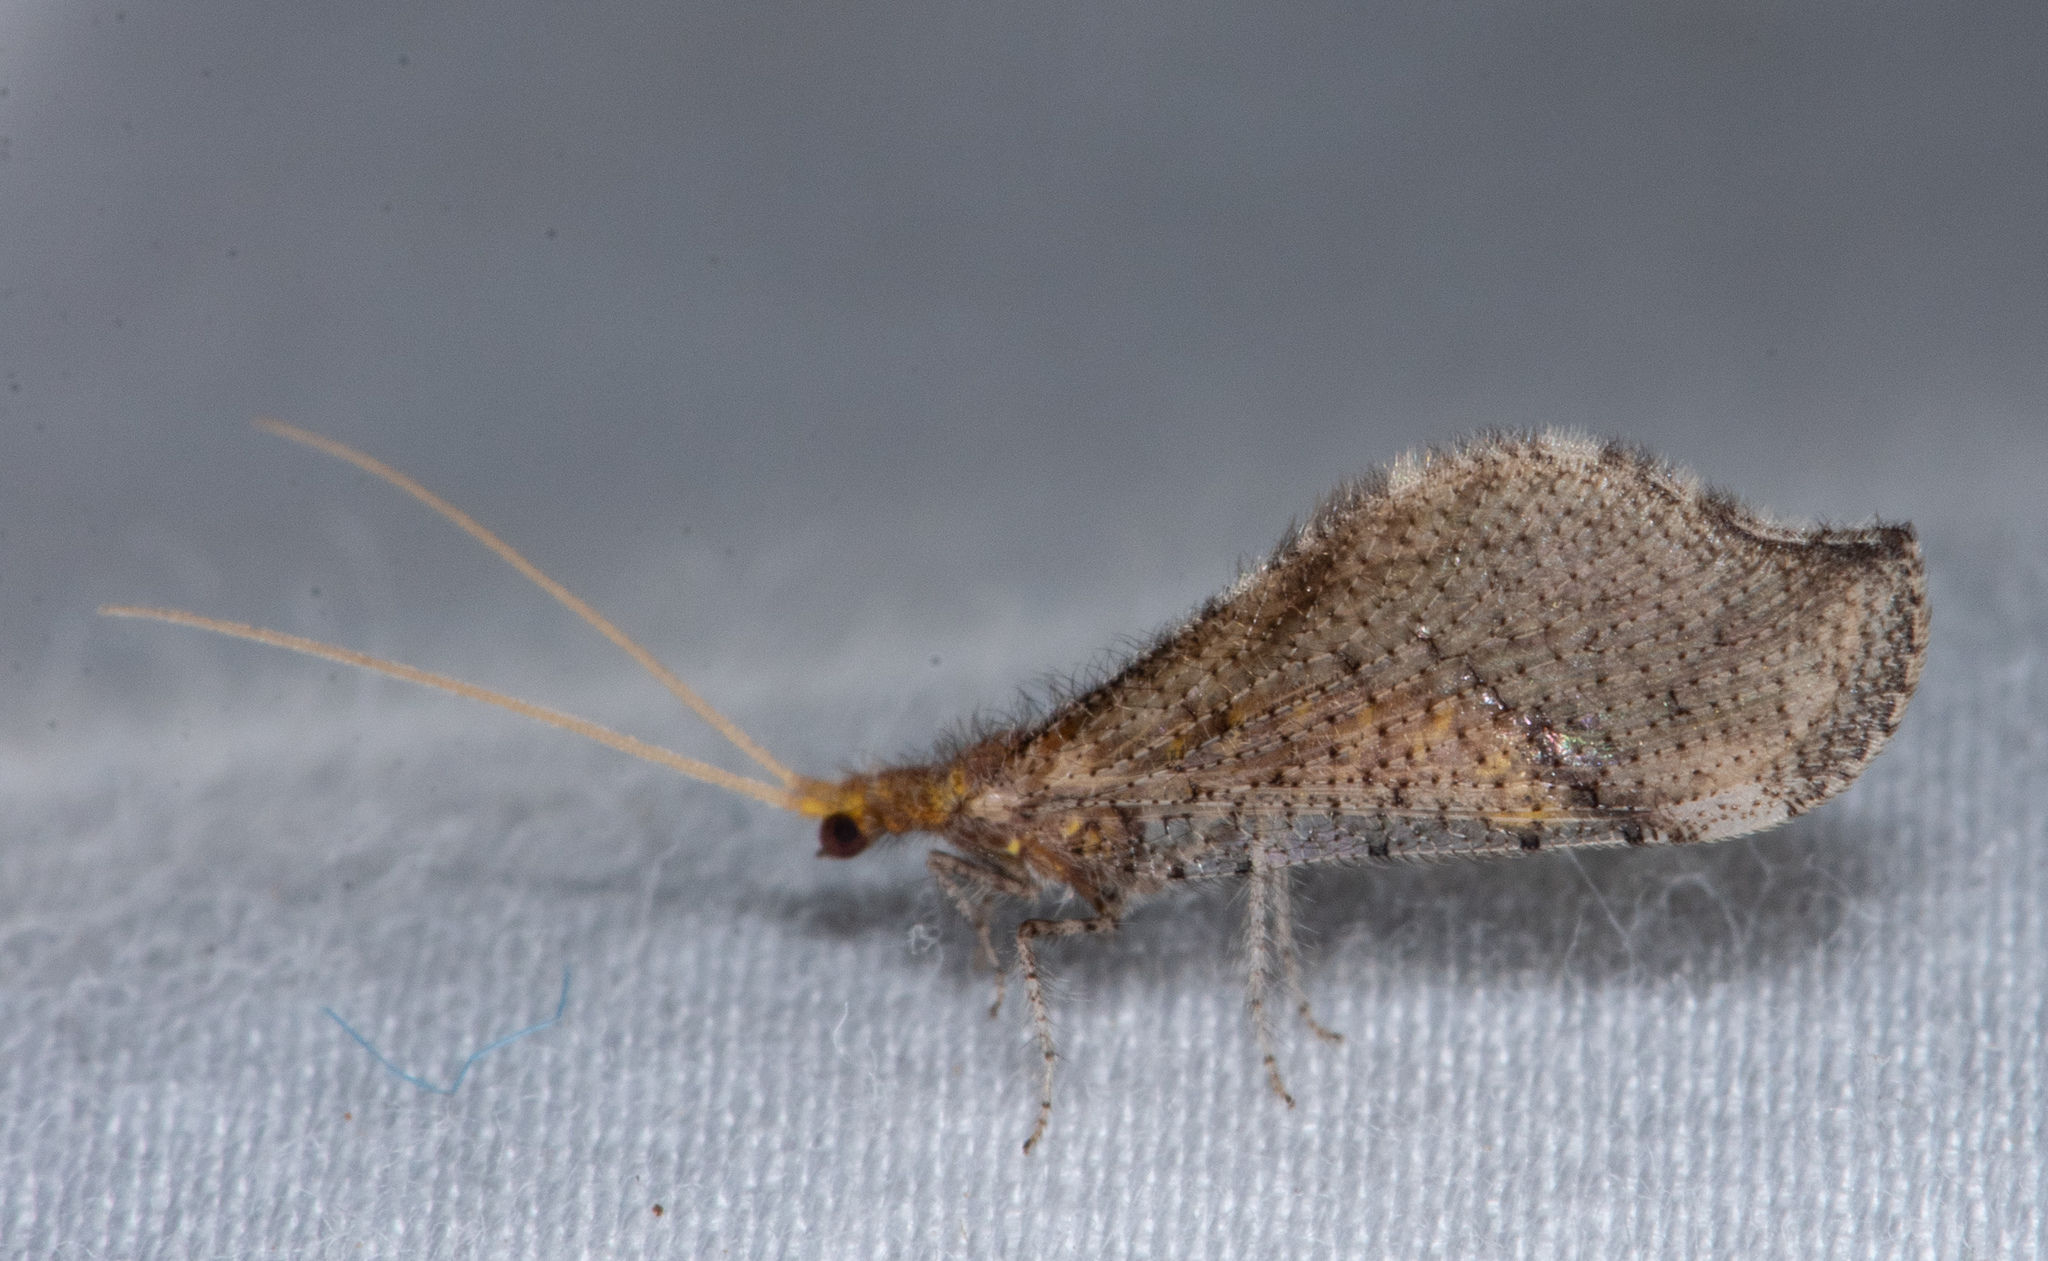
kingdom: Animalia
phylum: Arthropoda
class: Insecta
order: Neuroptera
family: Berothidae
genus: Lomamyia
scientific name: Lomamyia fulva
